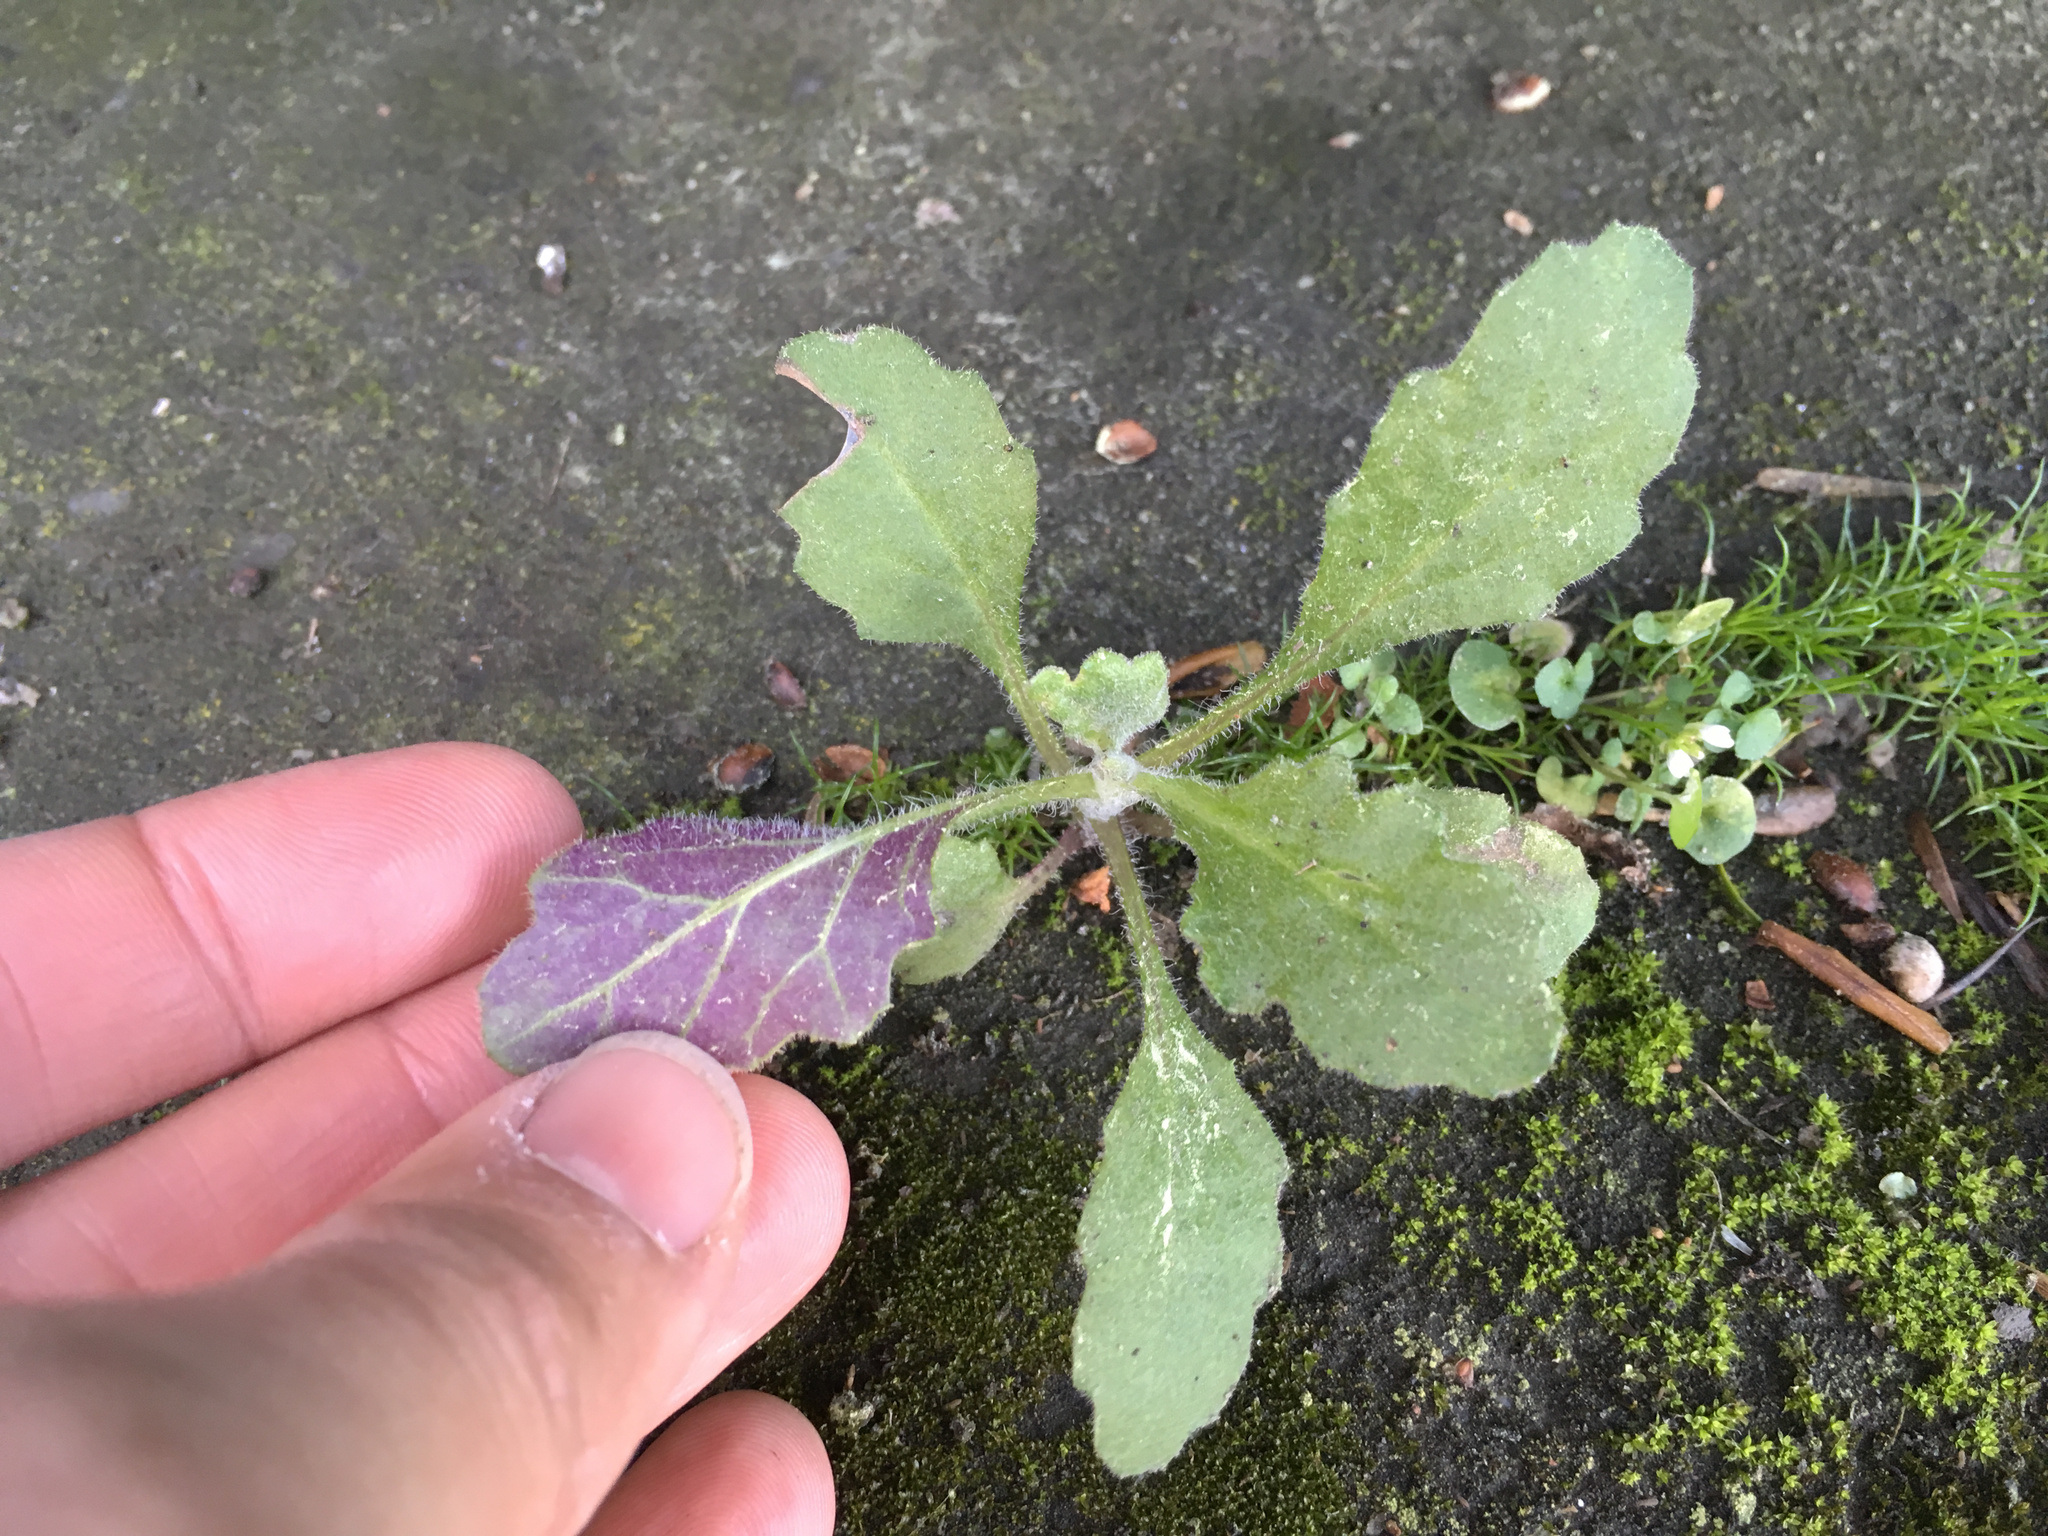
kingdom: Plantae
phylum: Tracheophyta
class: Magnoliopsida
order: Asterales
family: Asteraceae
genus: Senecio
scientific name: Senecio glomeratus
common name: Cutleaf burnweed
